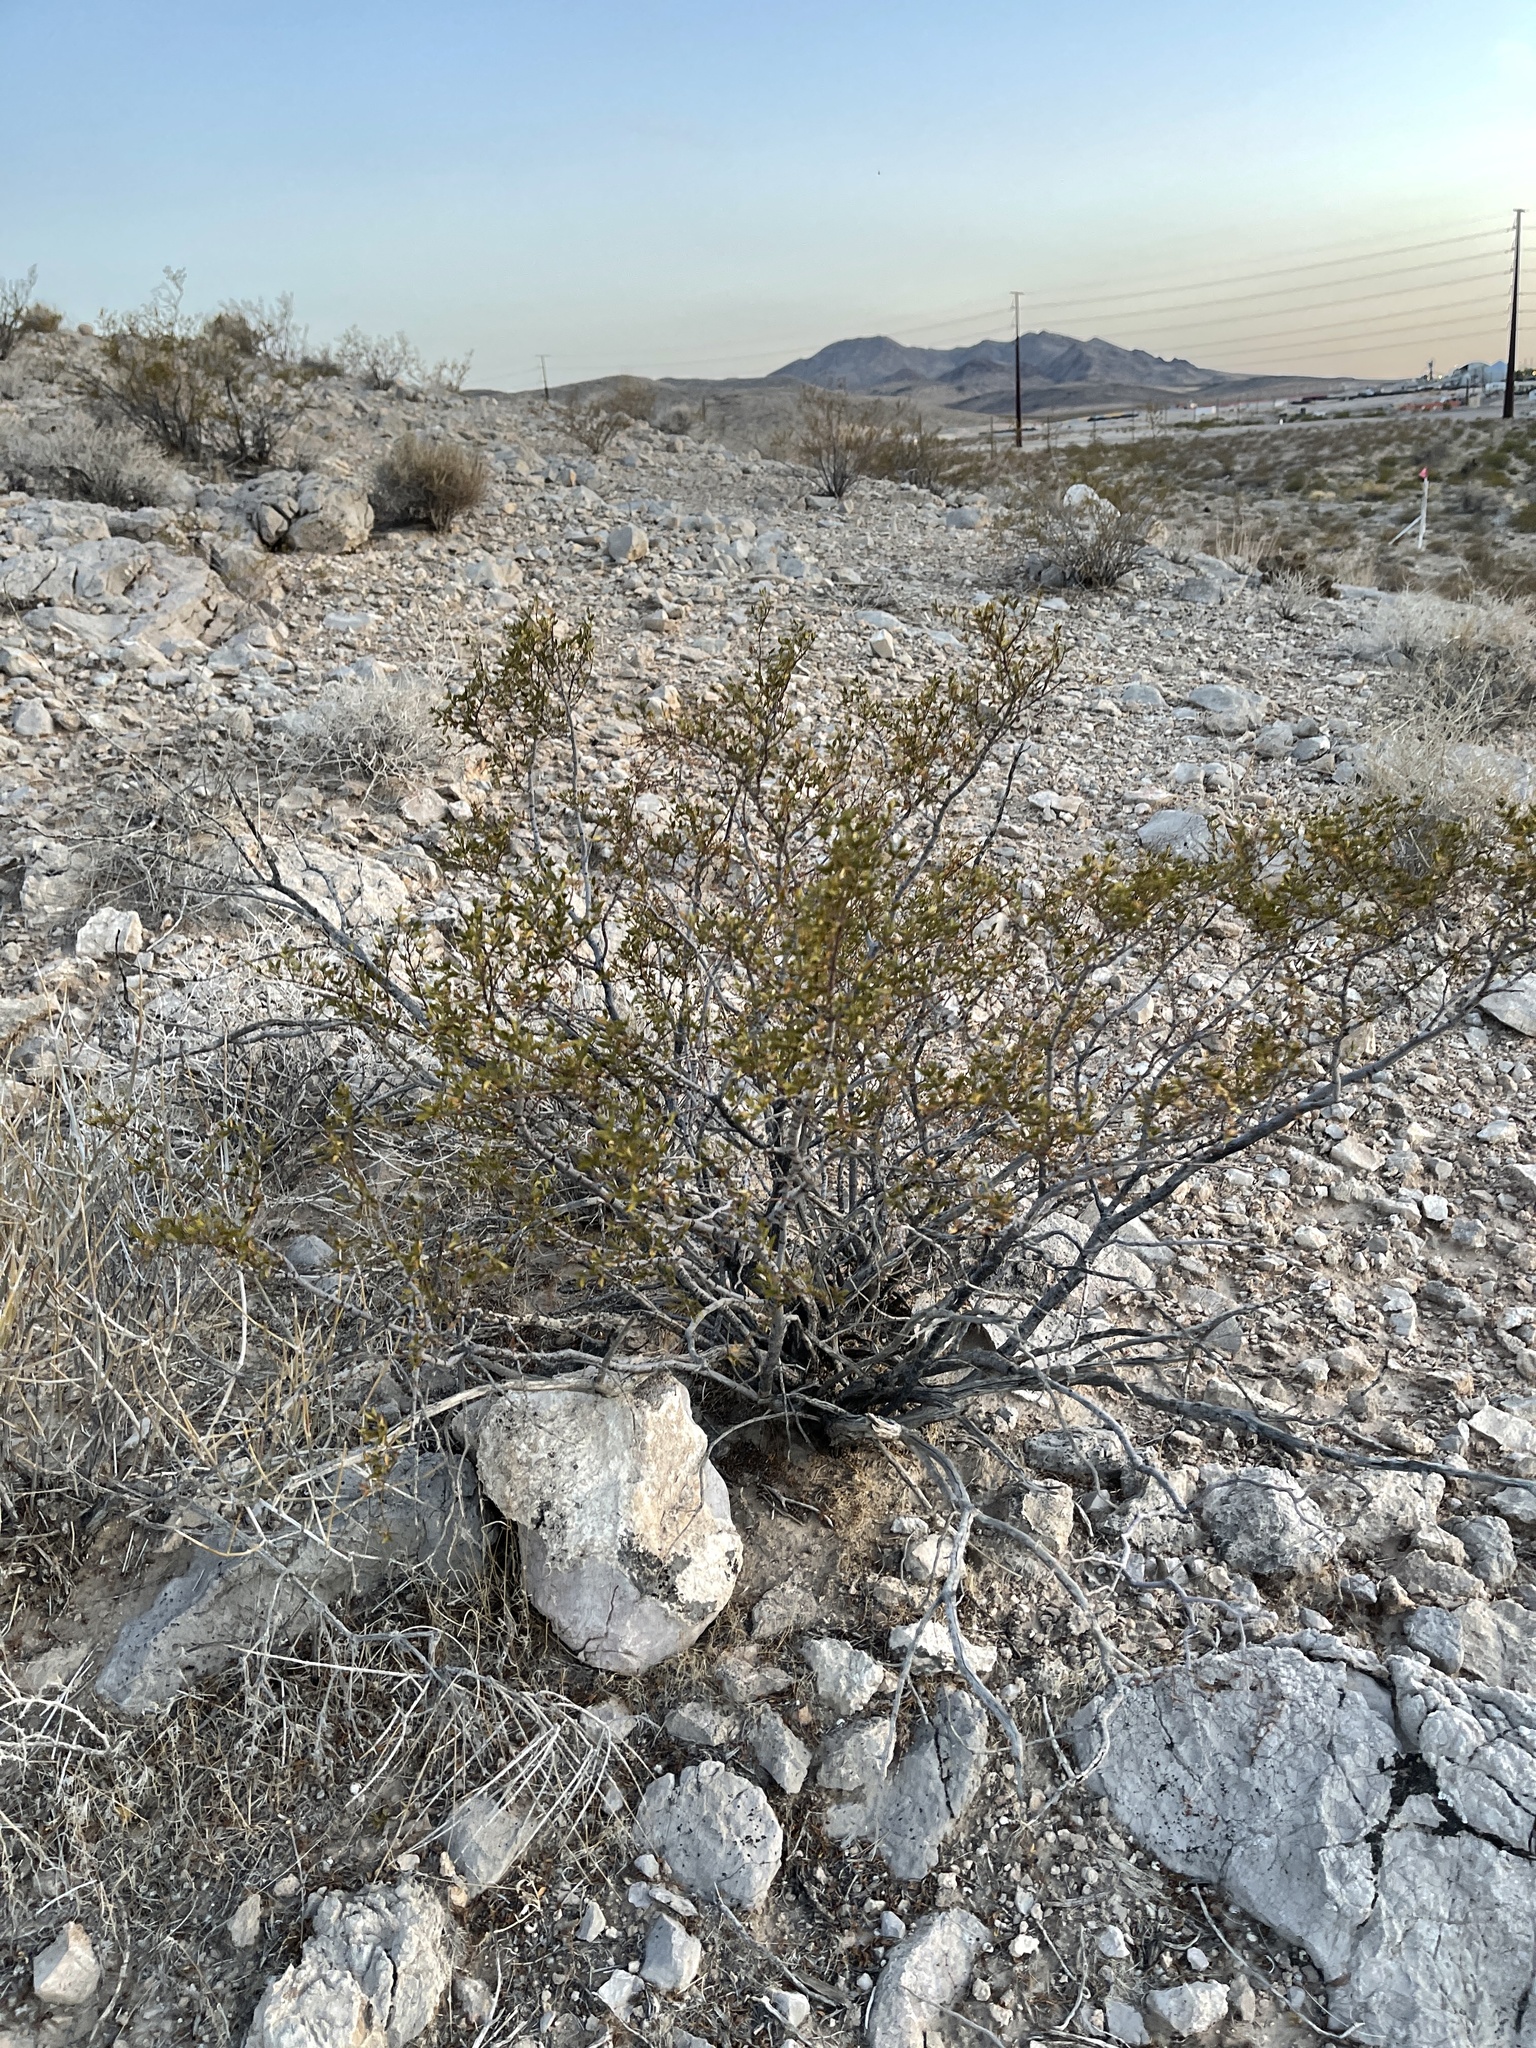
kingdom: Plantae
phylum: Tracheophyta
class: Magnoliopsida
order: Zygophyllales
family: Zygophyllaceae
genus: Larrea
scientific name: Larrea tridentata
